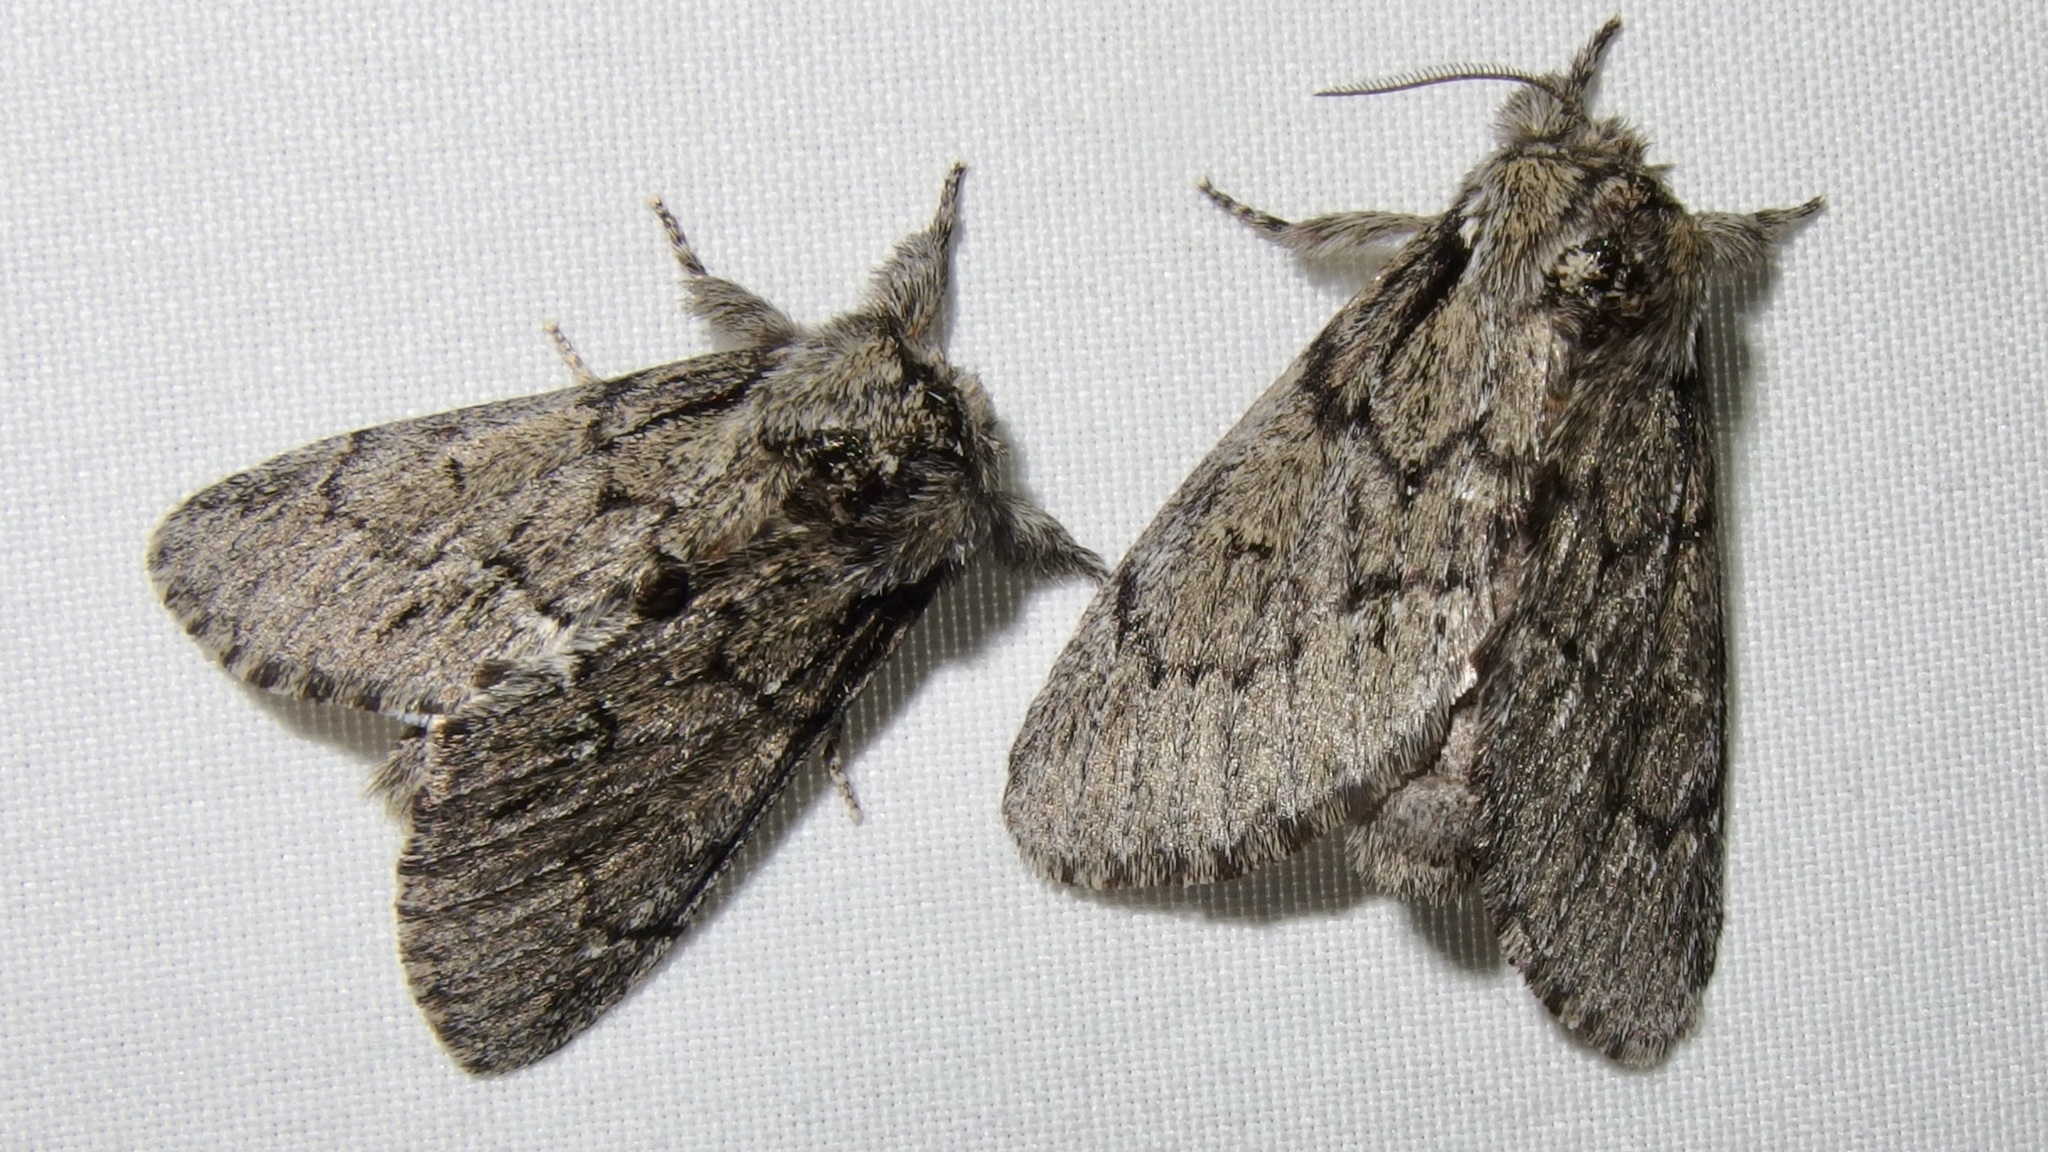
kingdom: Animalia
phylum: Arthropoda
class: Insecta
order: Lepidoptera
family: Notodontidae
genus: Paraeschra
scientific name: Paraeschra tortuosa
